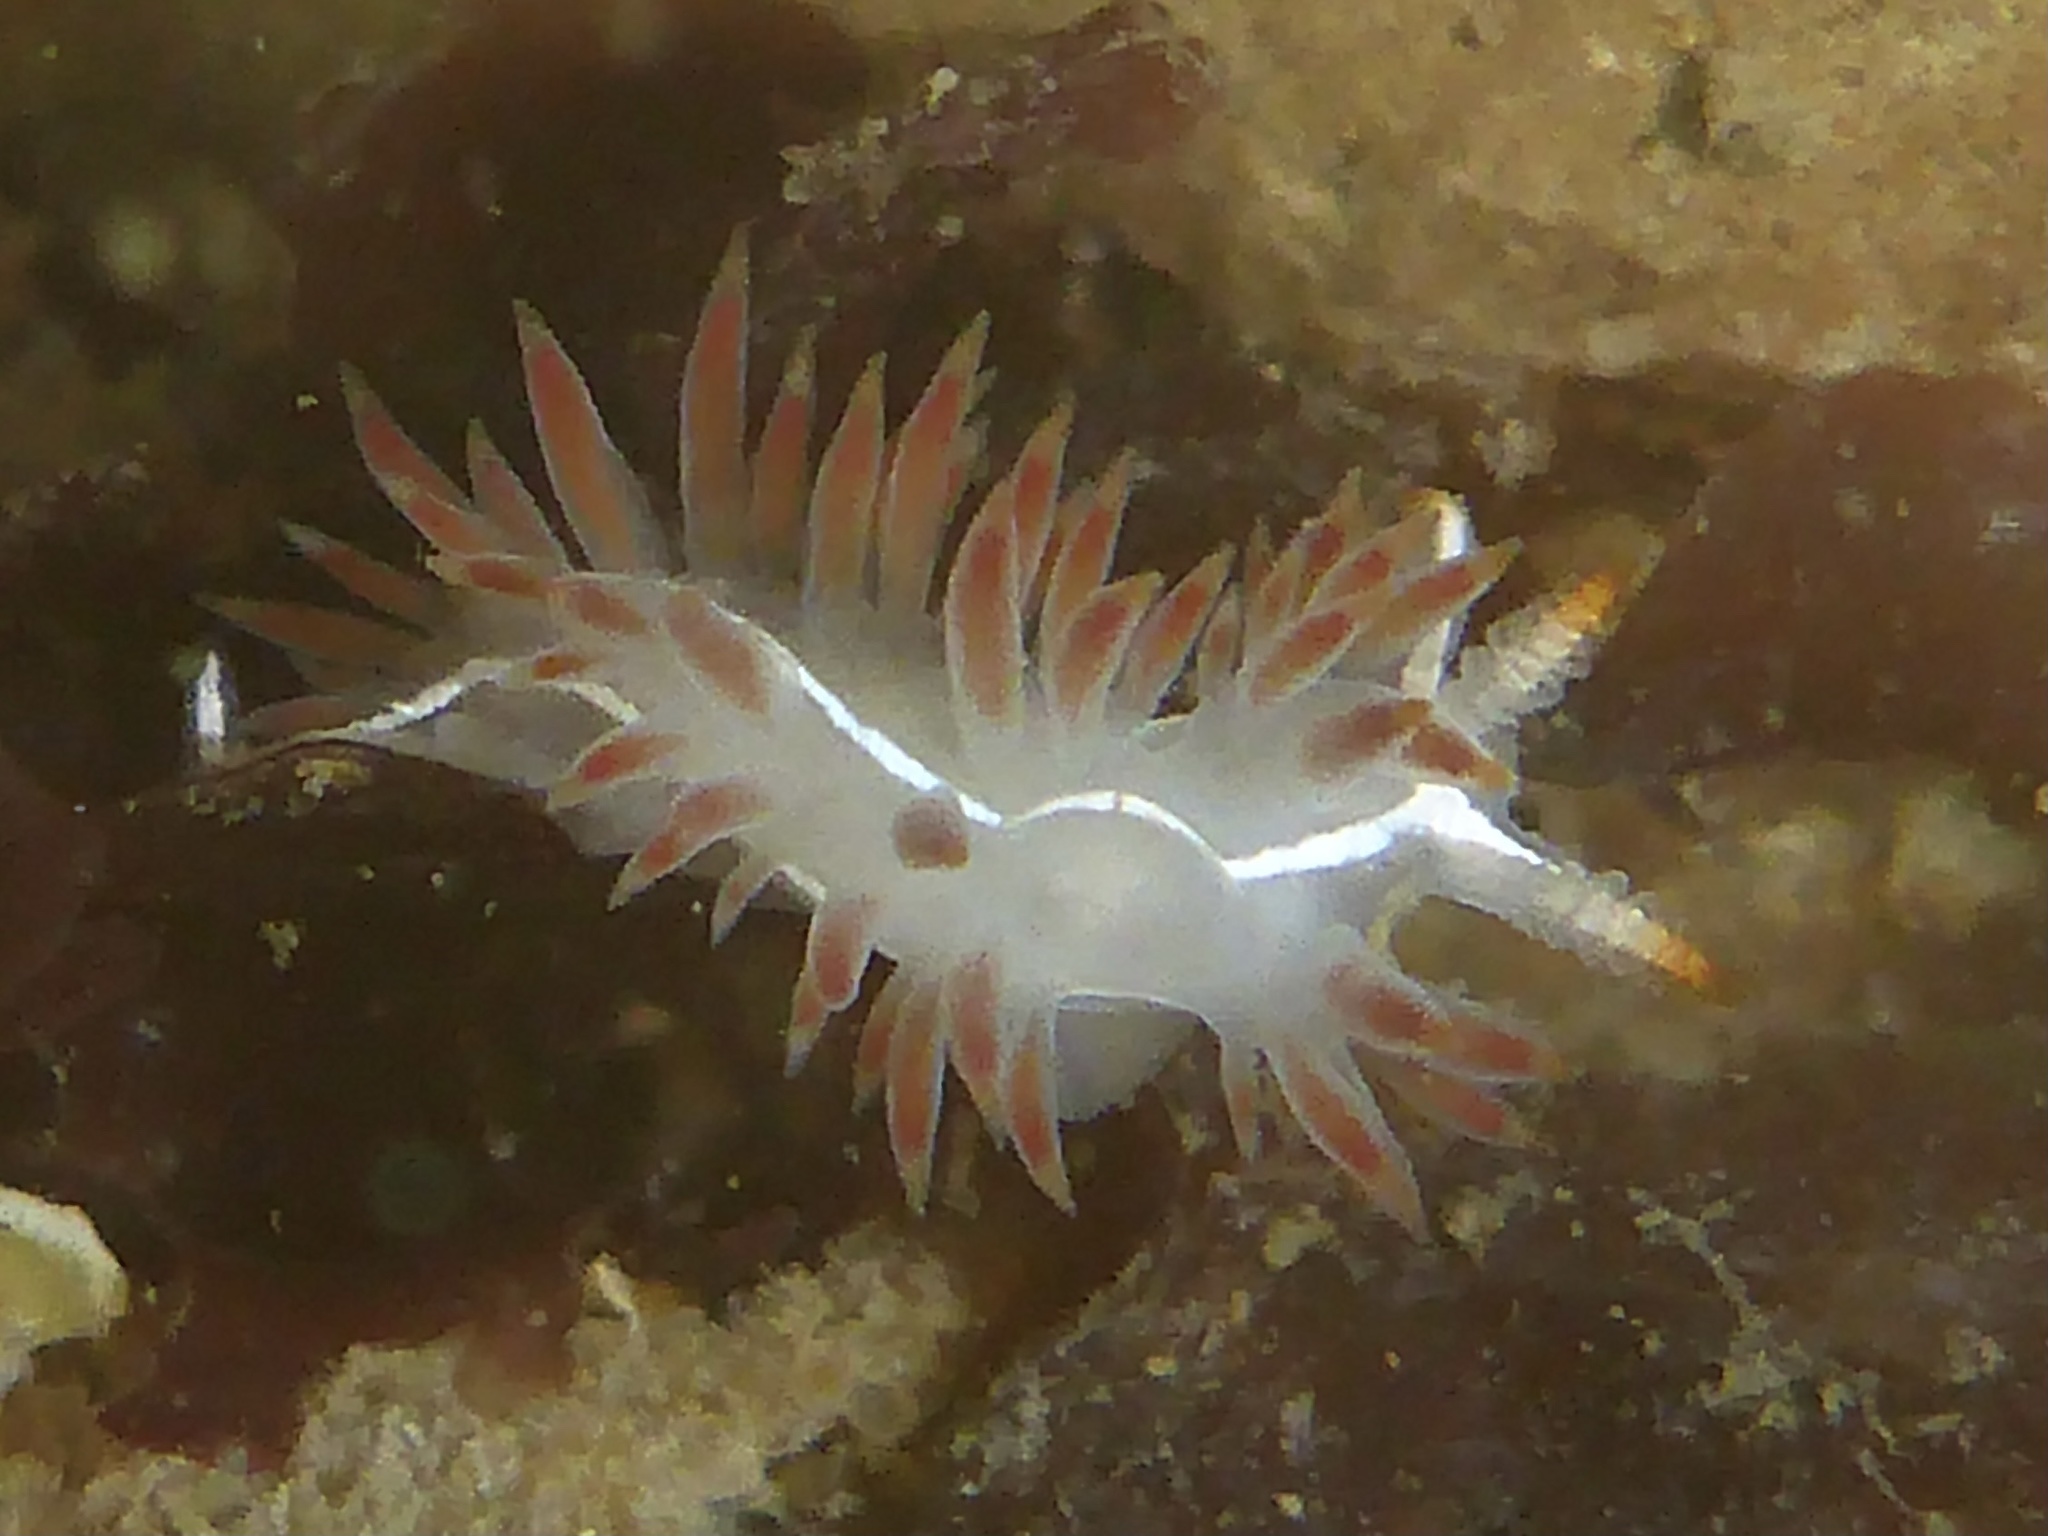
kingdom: Animalia
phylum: Mollusca
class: Gastropoda
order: Nudibranchia
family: Coryphellidae
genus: Coryphella
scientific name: Coryphella trilineata
